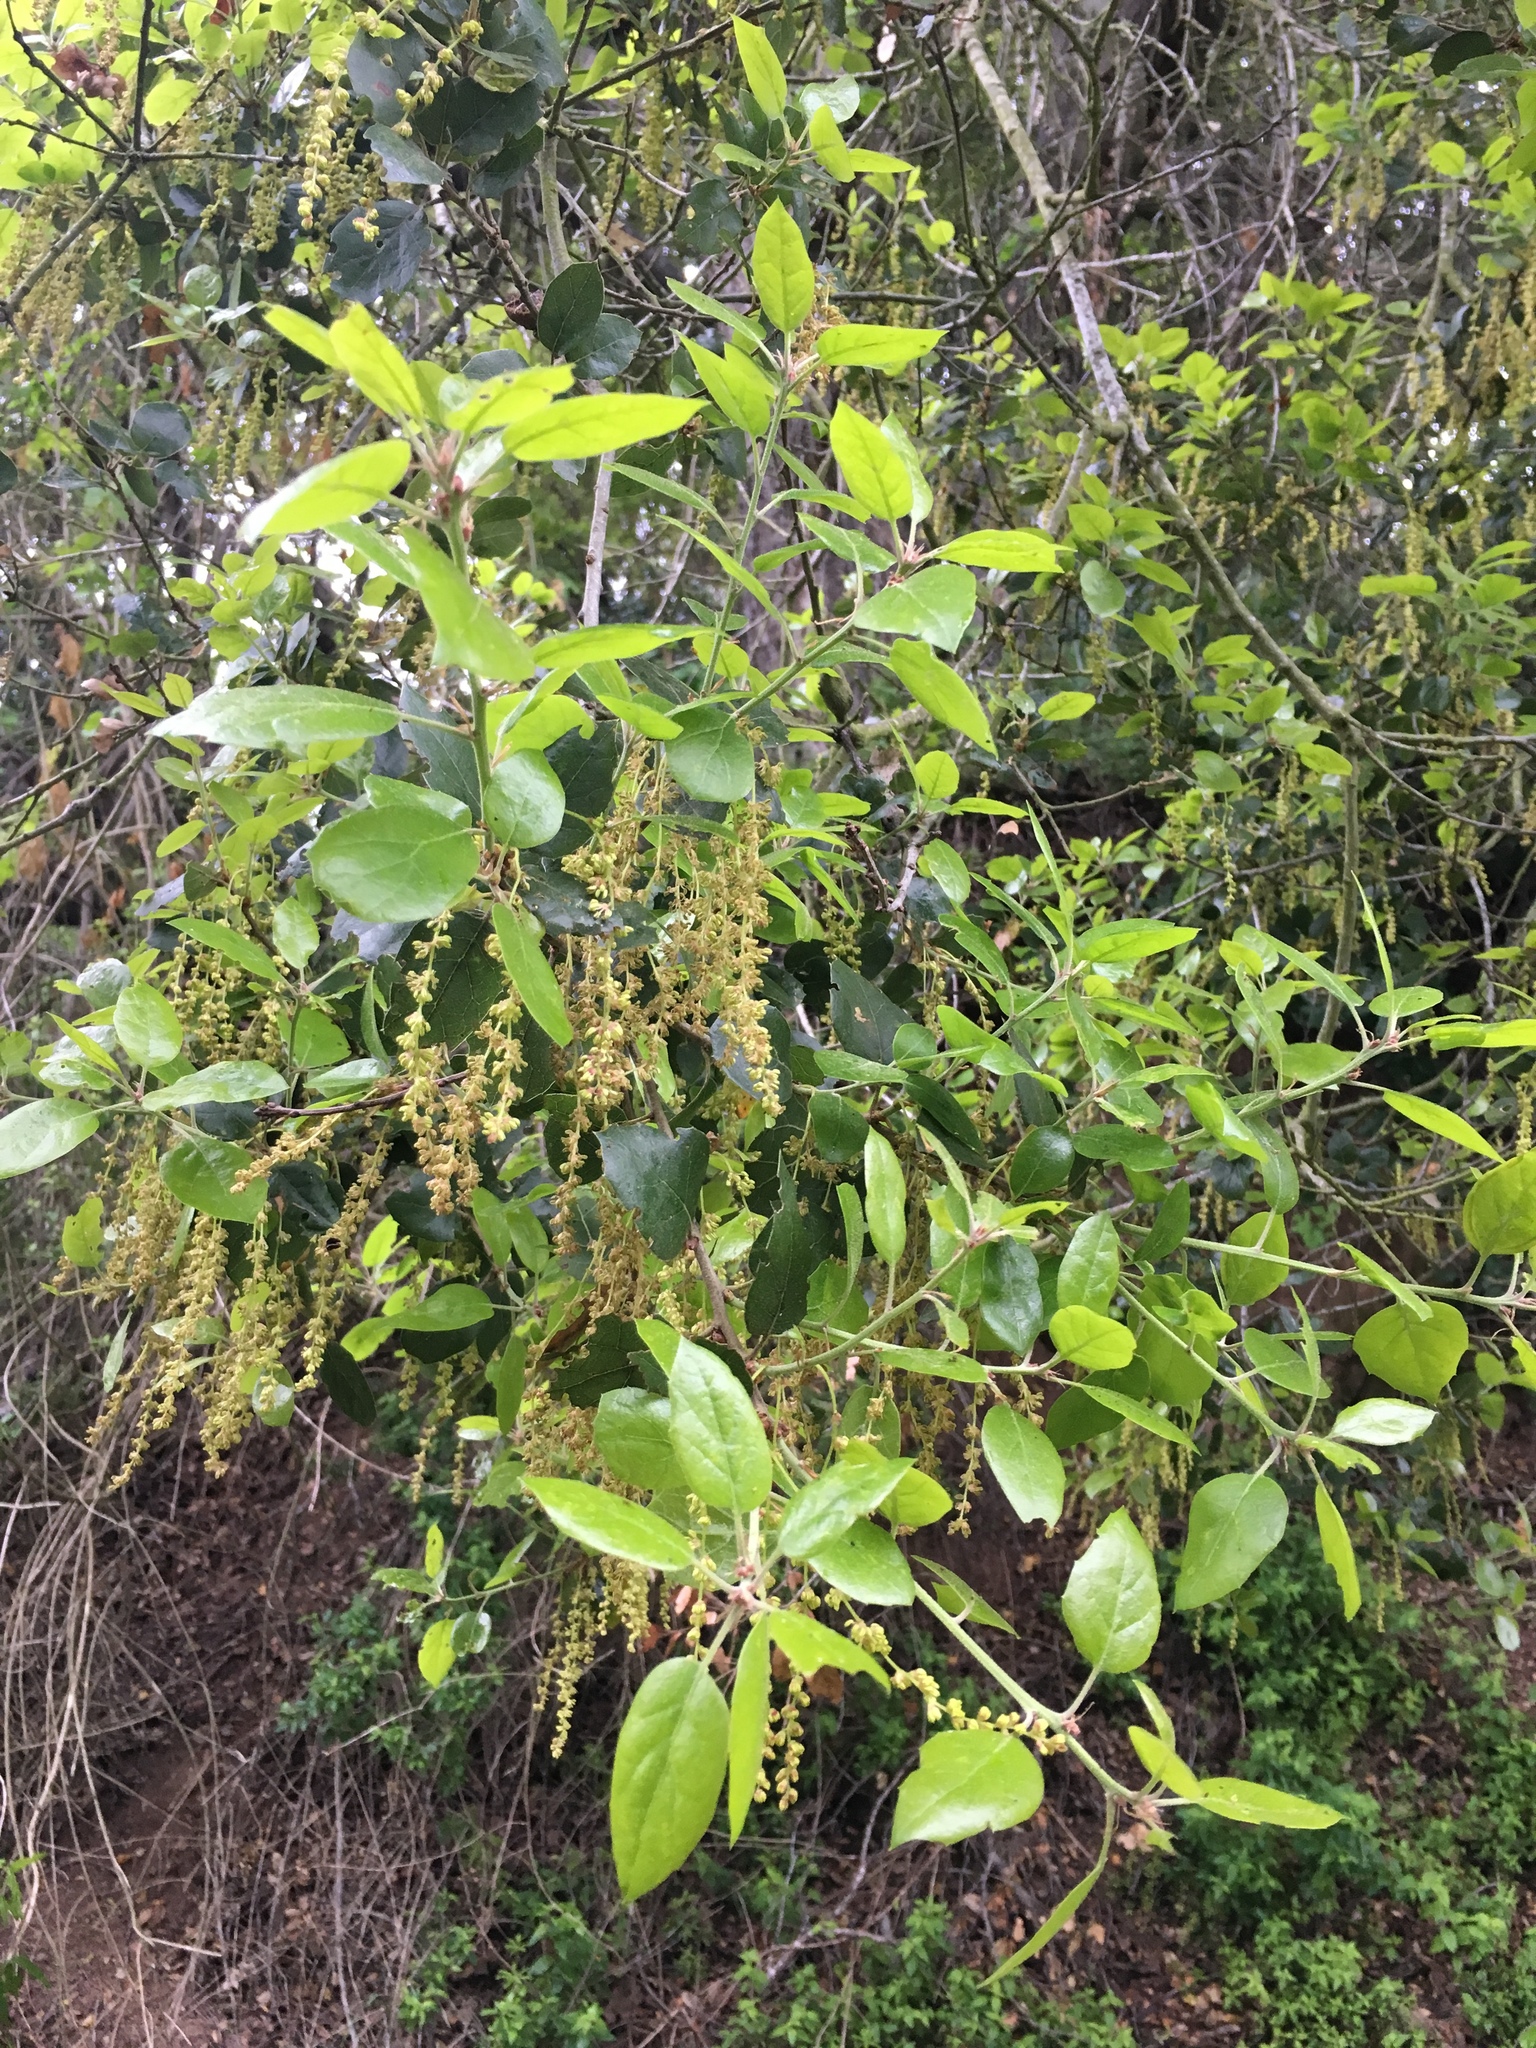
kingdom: Plantae
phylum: Tracheophyta
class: Magnoliopsida
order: Fagales
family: Fagaceae
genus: Quercus
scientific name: Quercus agrifolia
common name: California live oak
